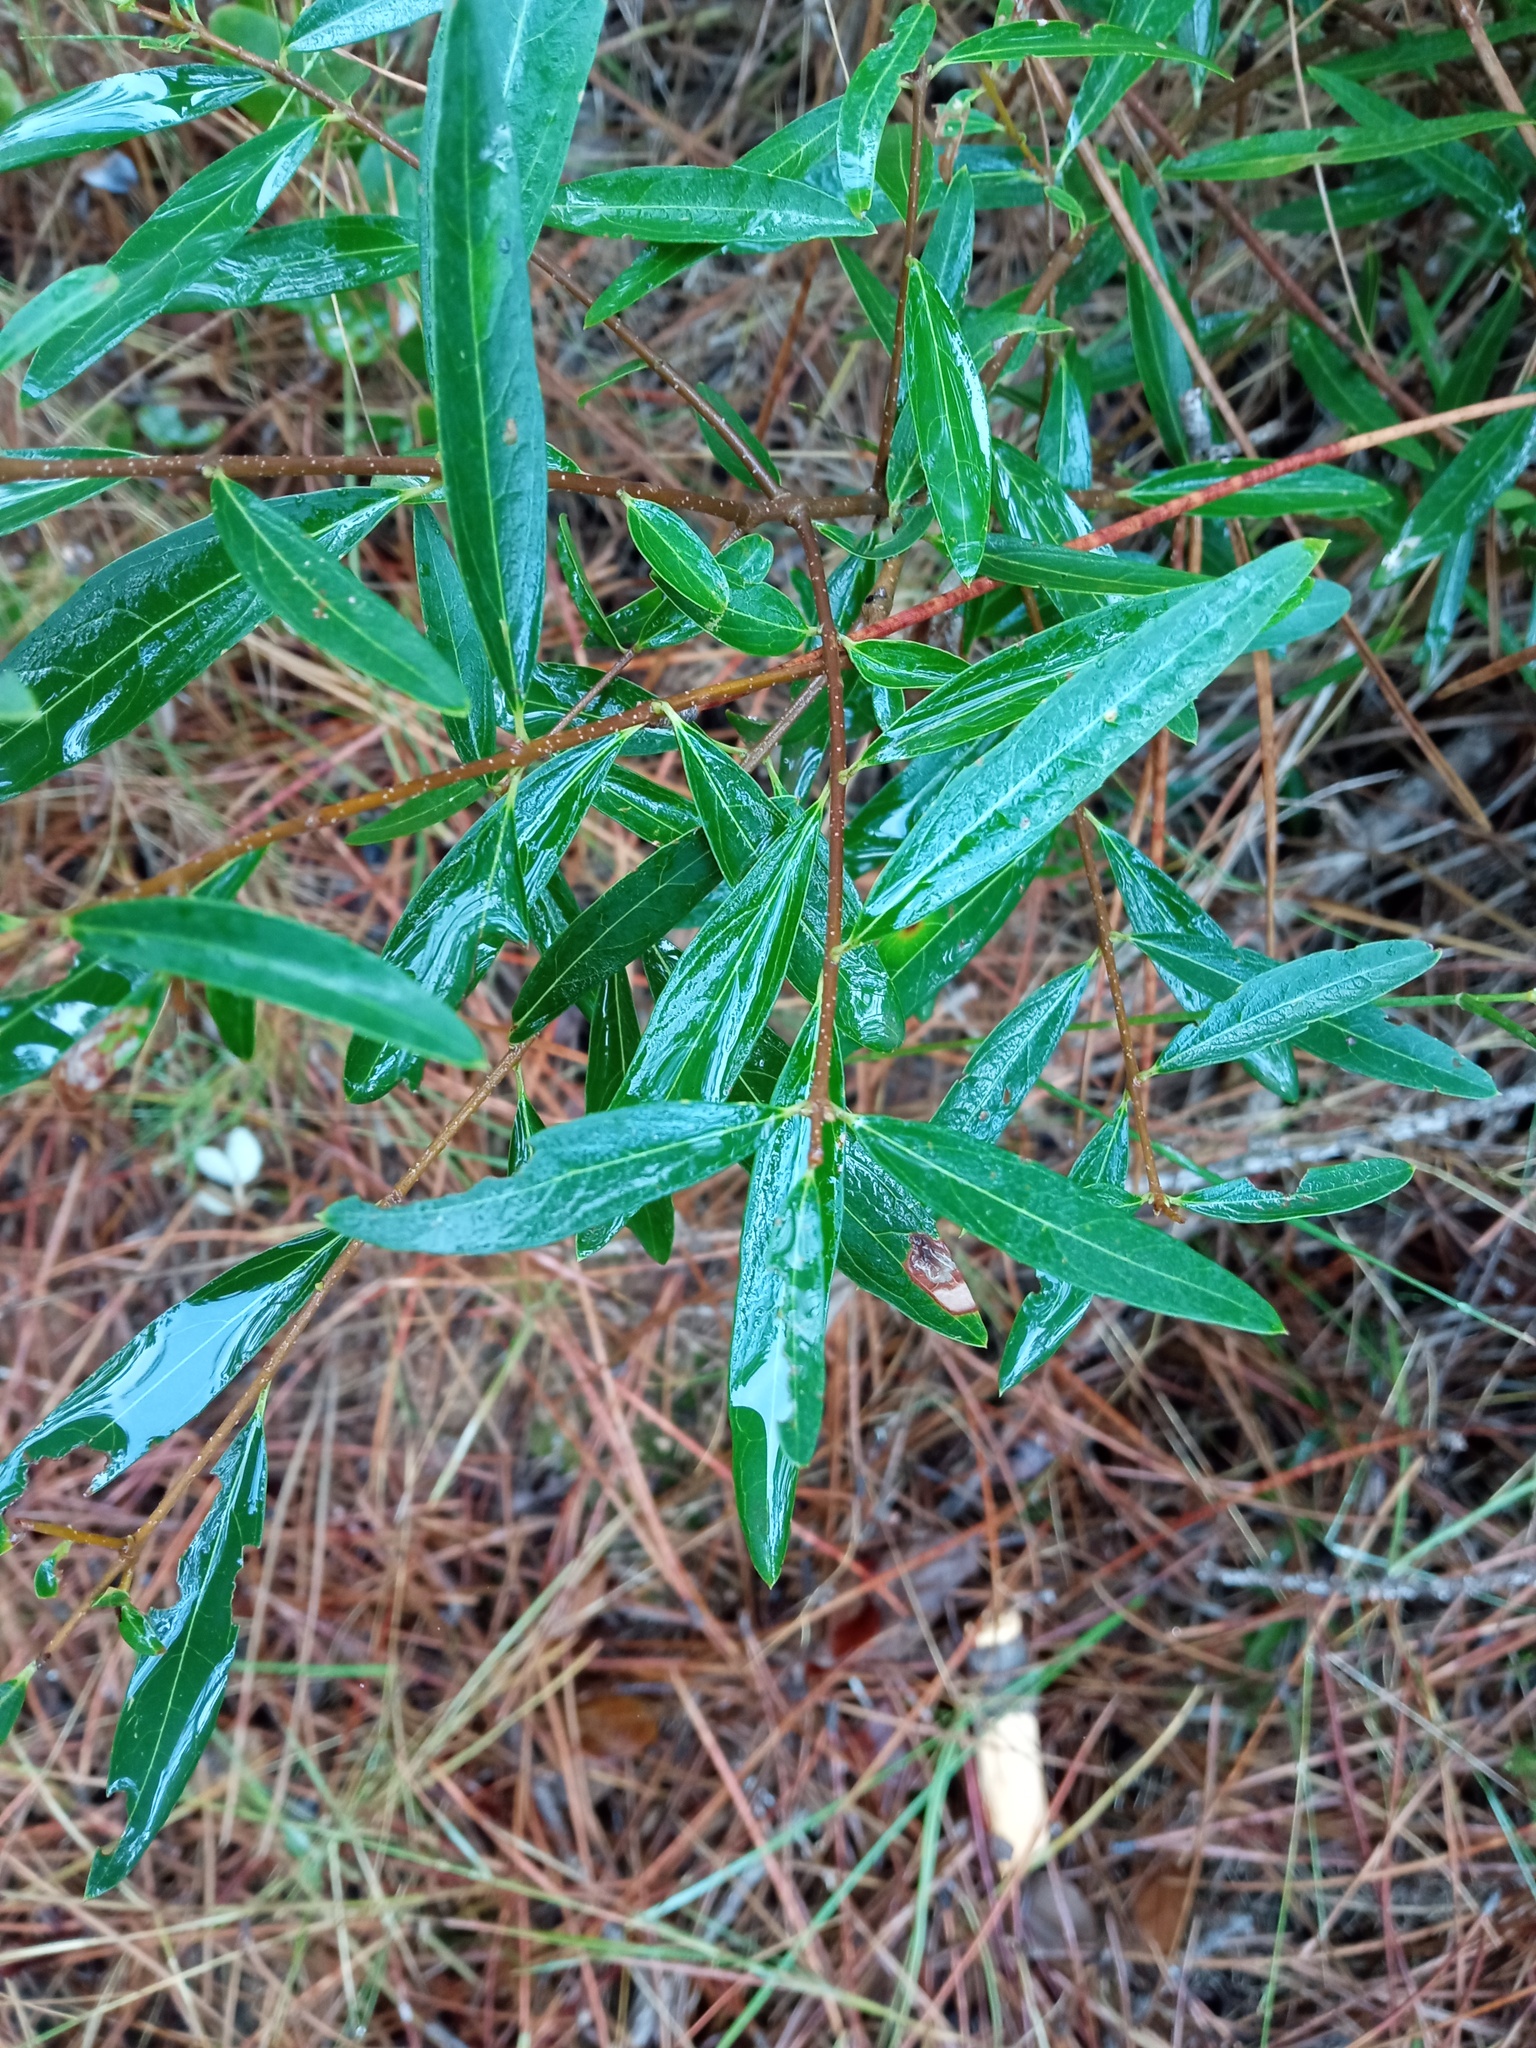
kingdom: Plantae
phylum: Tracheophyta
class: Magnoliopsida
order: Lamiales
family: Oleaceae
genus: Phillyrea
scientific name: Phillyrea angustifolia
